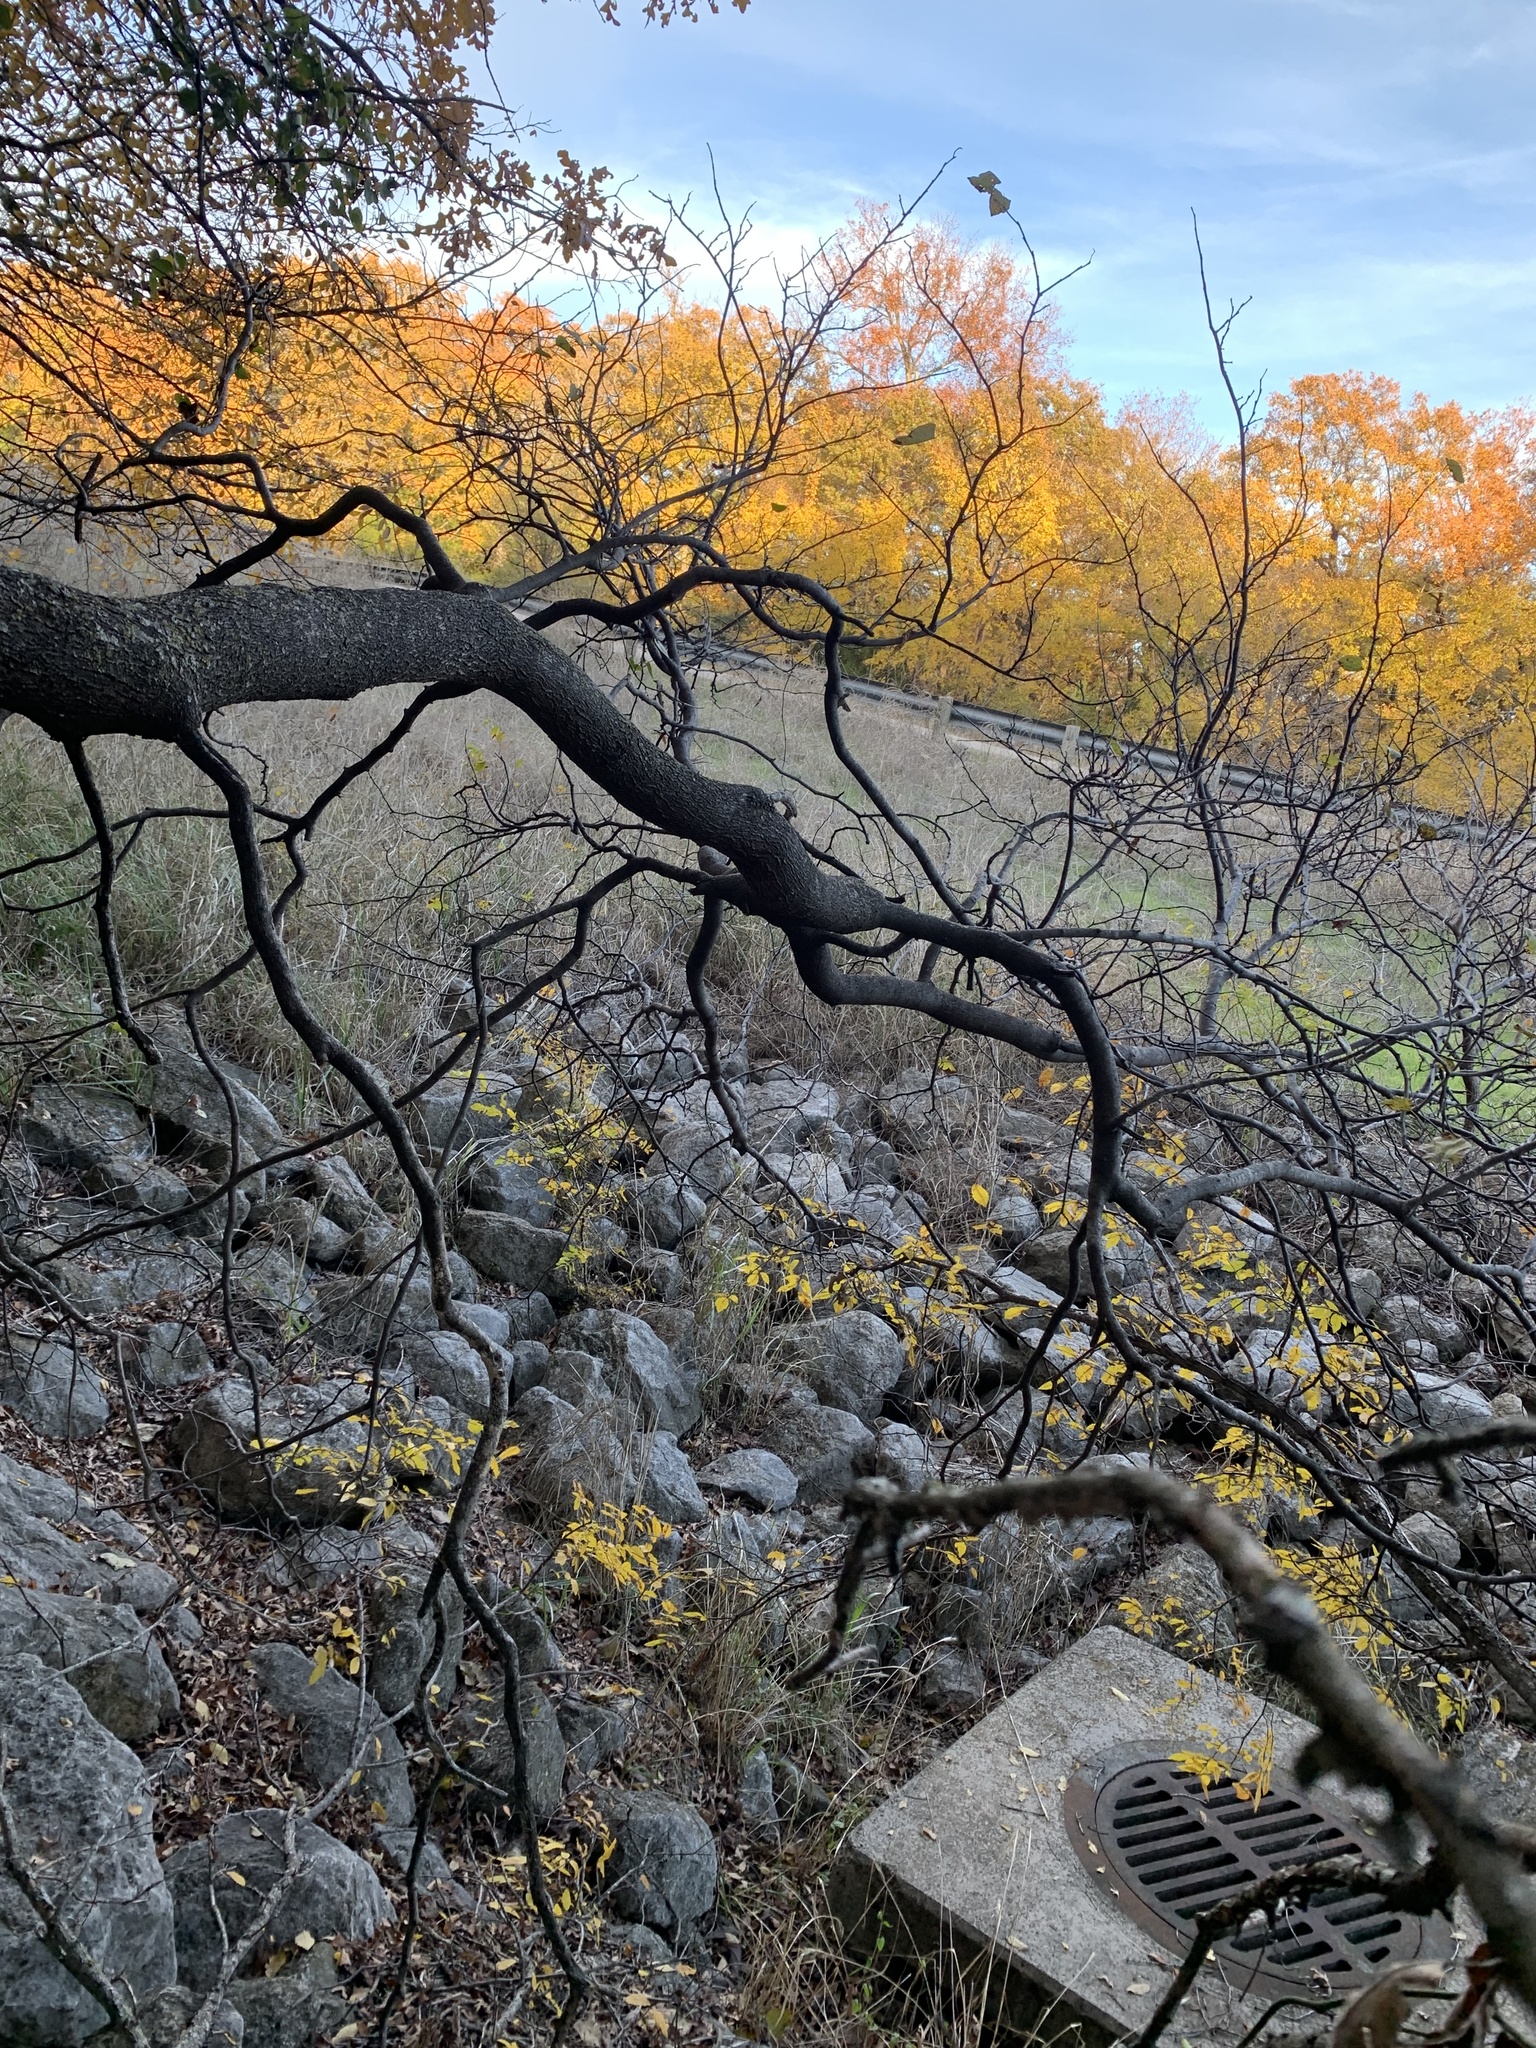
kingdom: Plantae
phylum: Tracheophyta
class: Magnoliopsida
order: Fabales
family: Fabaceae
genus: Cercis
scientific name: Cercis canadensis
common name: Eastern redbud
